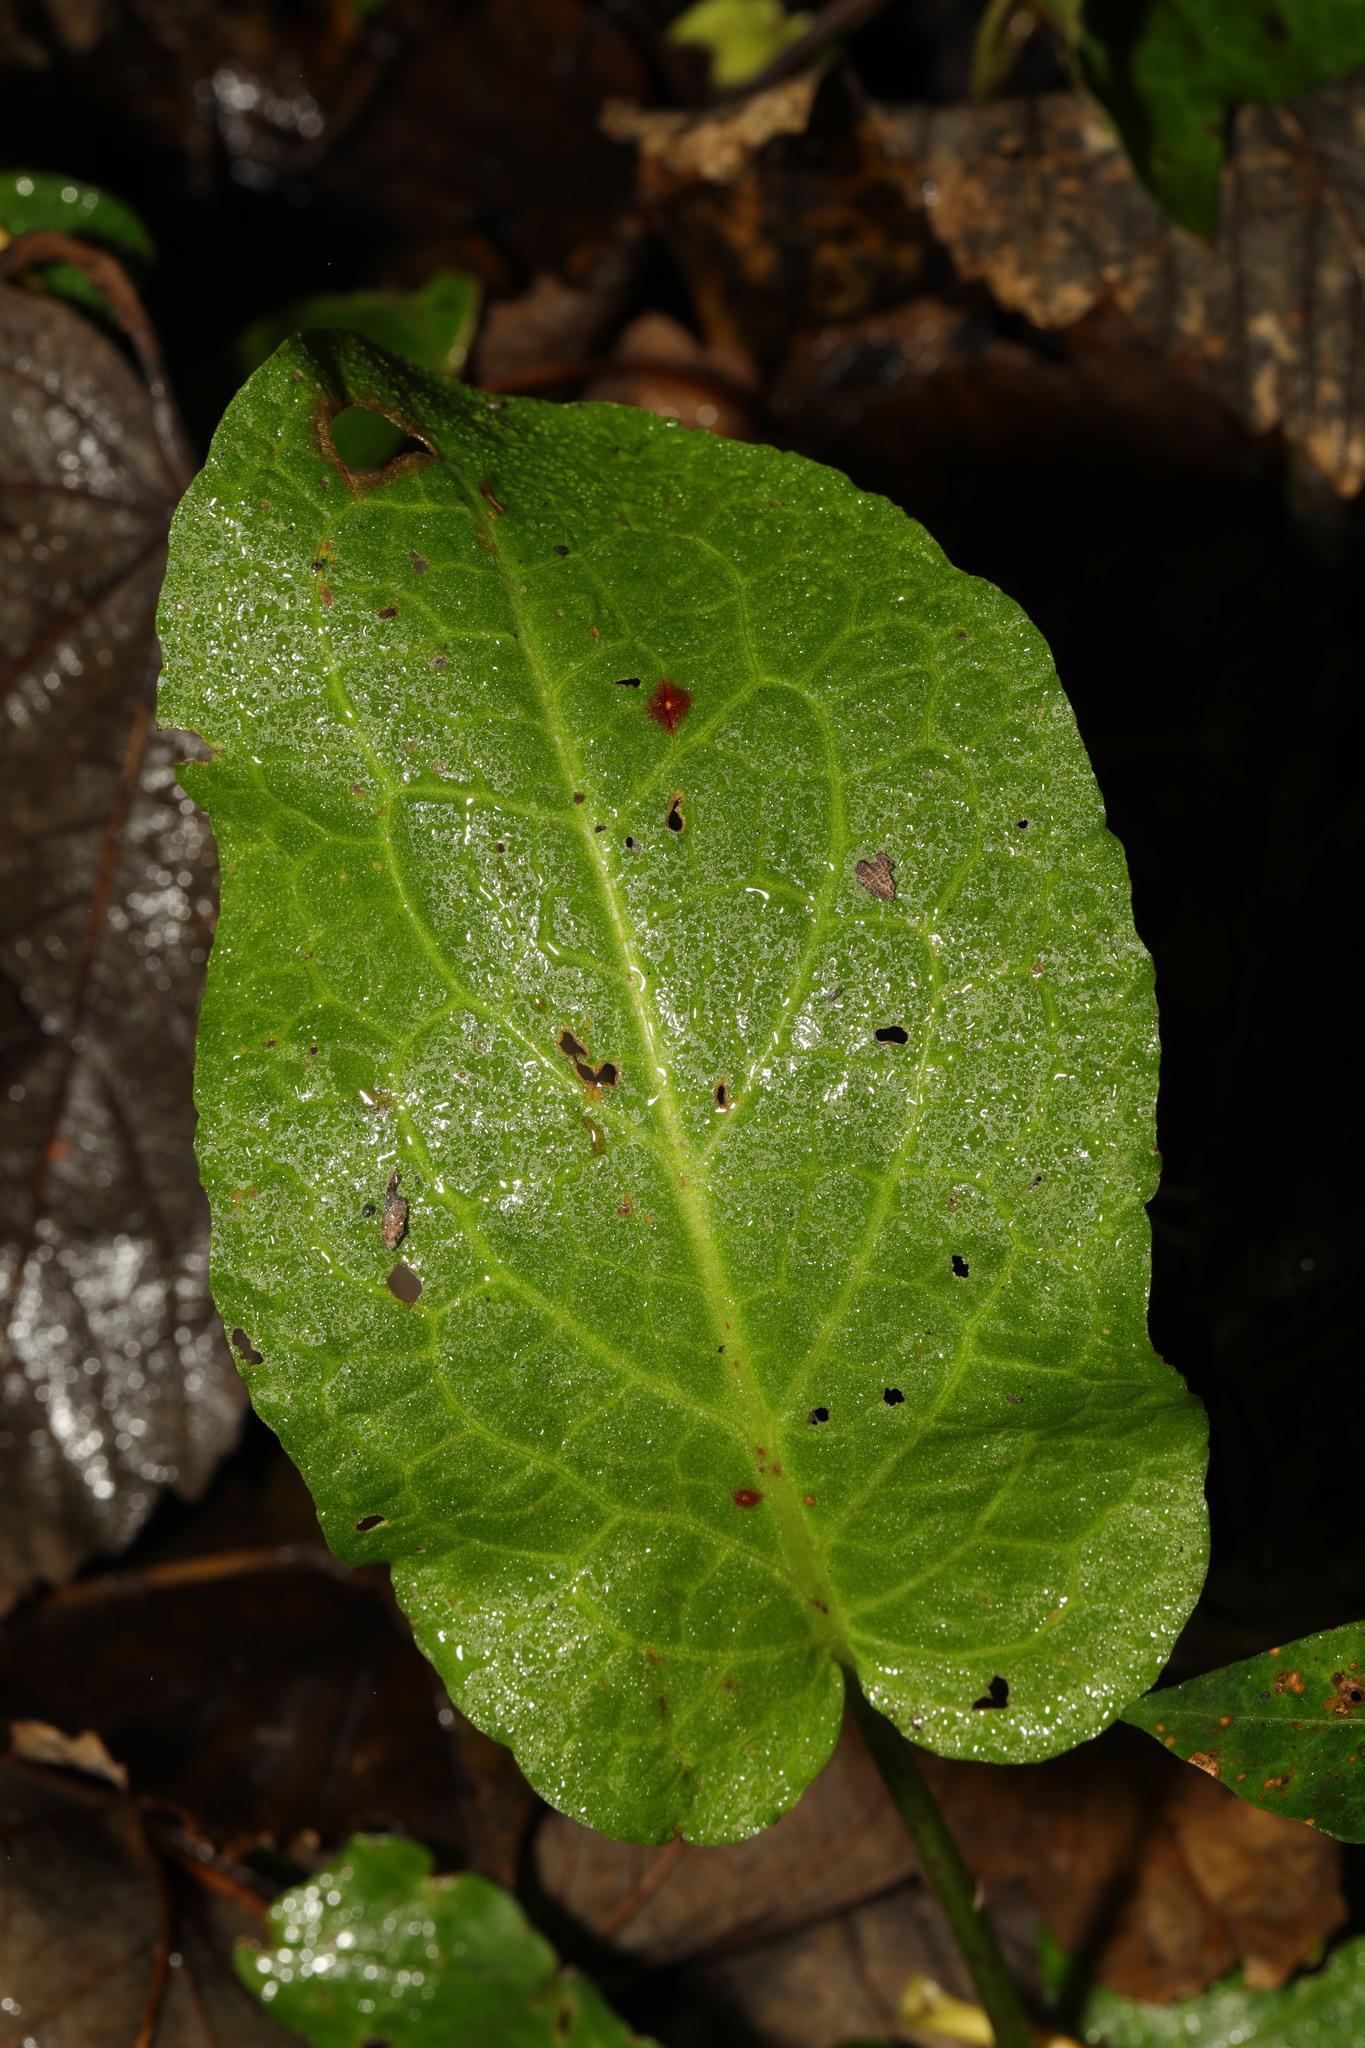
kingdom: Plantae
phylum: Tracheophyta
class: Magnoliopsida
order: Caryophyllales
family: Polygonaceae
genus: Rumex
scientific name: Rumex obtusifolius
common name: Bitter dock
